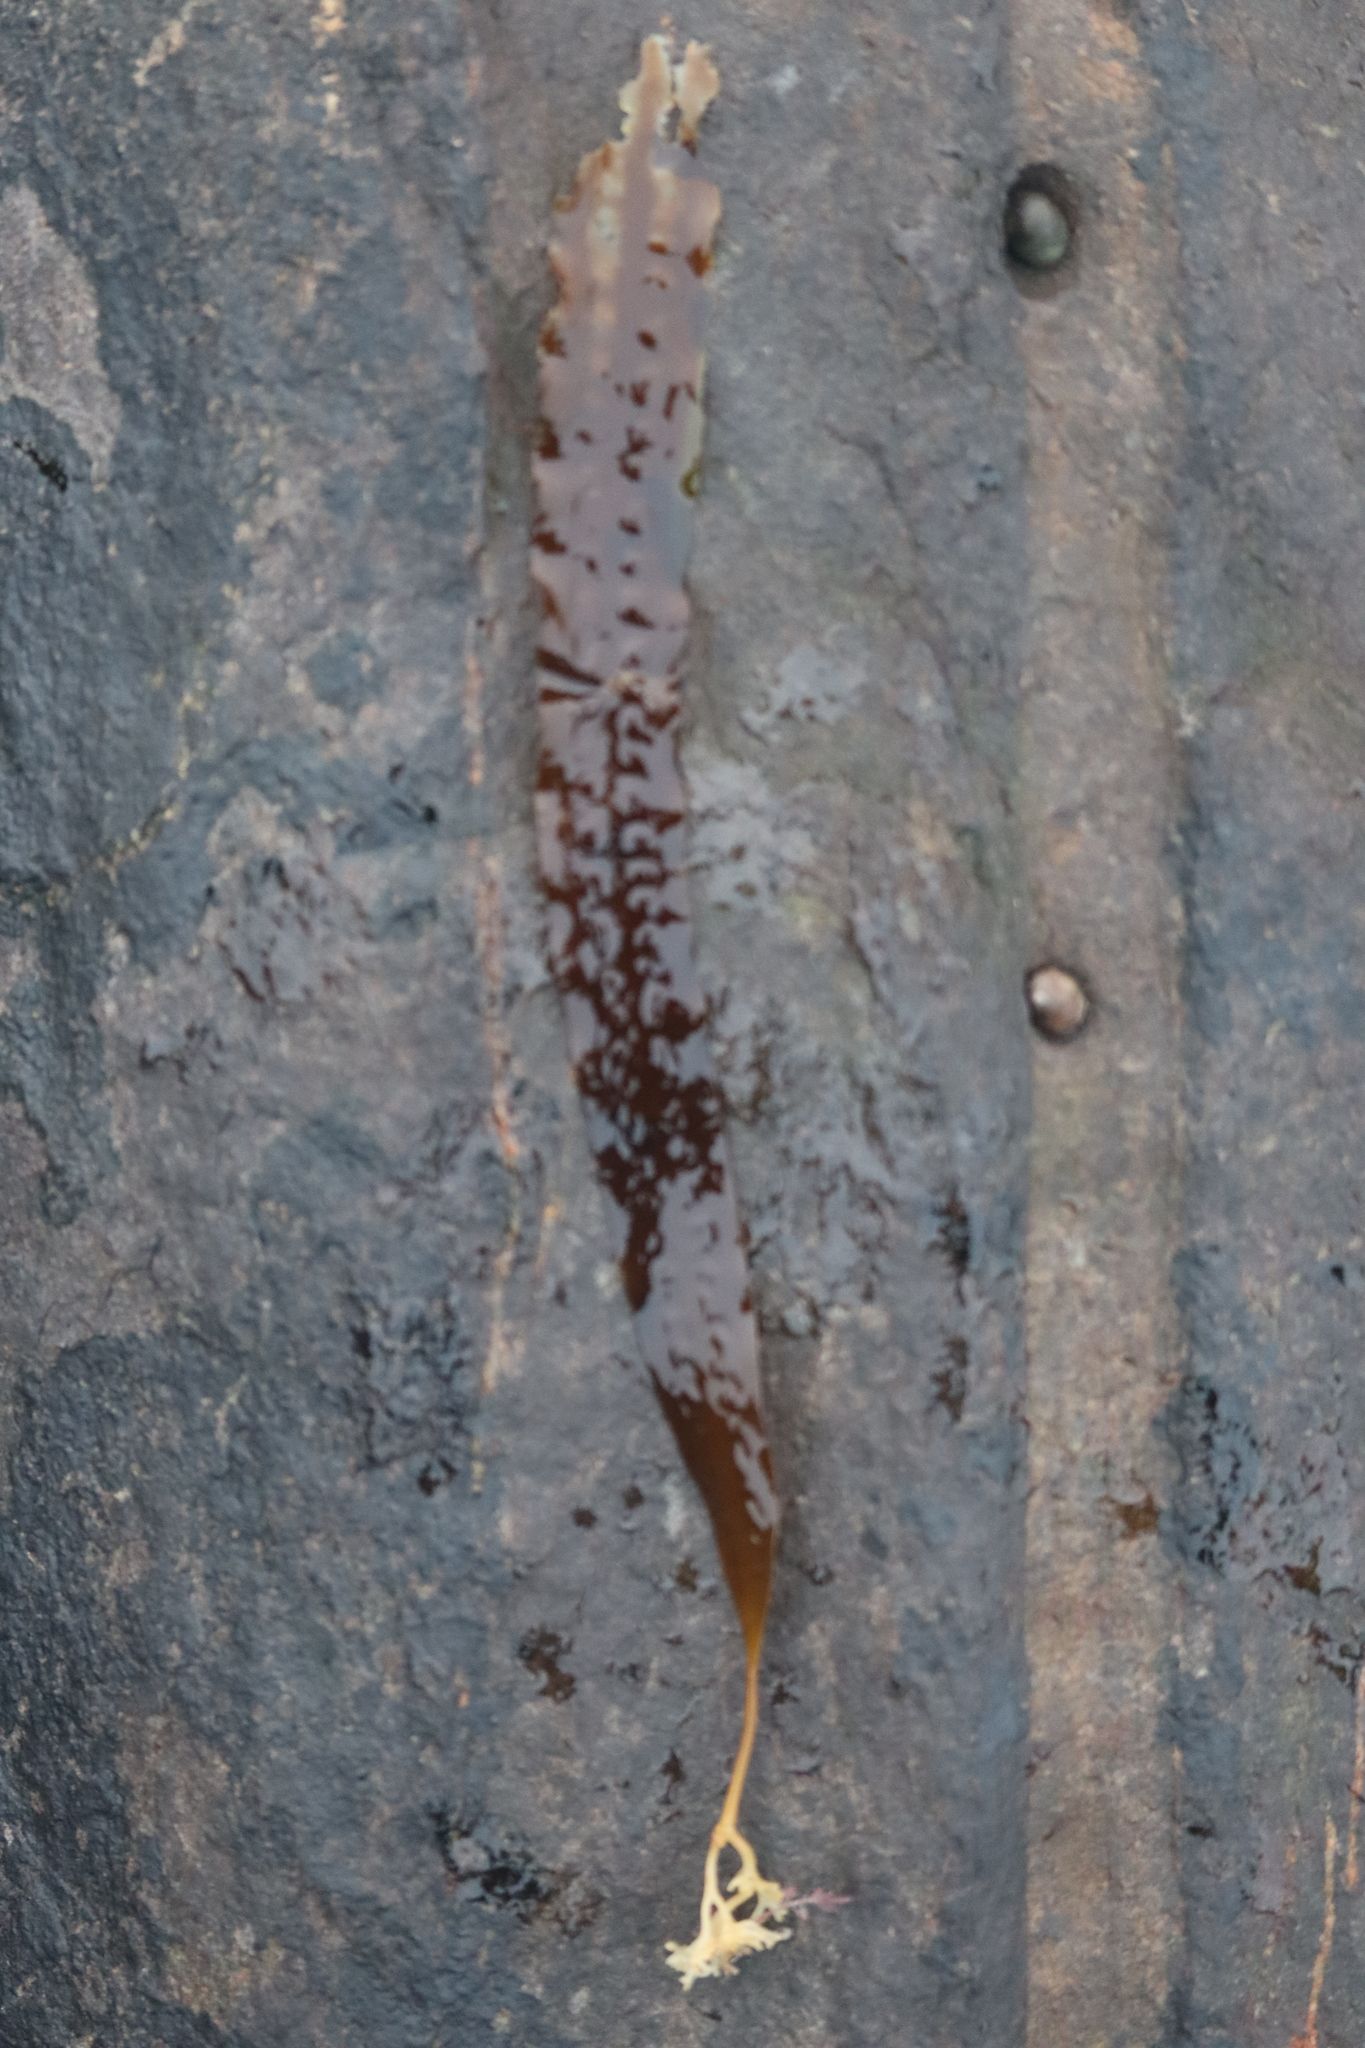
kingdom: Chromista
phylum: Ochrophyta
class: Phaeophyceae
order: Laminariales
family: Laminariaceae
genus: Saccharina
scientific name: Saccharina latissima
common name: Poor man's weather glass
